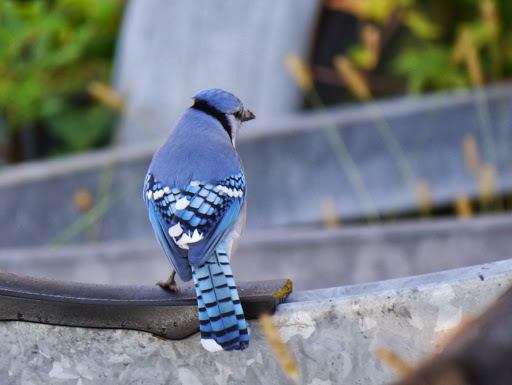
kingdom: Animalia
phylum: Chordata
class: Aves
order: Passeriformes
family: Corvidae
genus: Cyanocitta
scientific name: Cyanocitta cristata
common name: Blue jay
